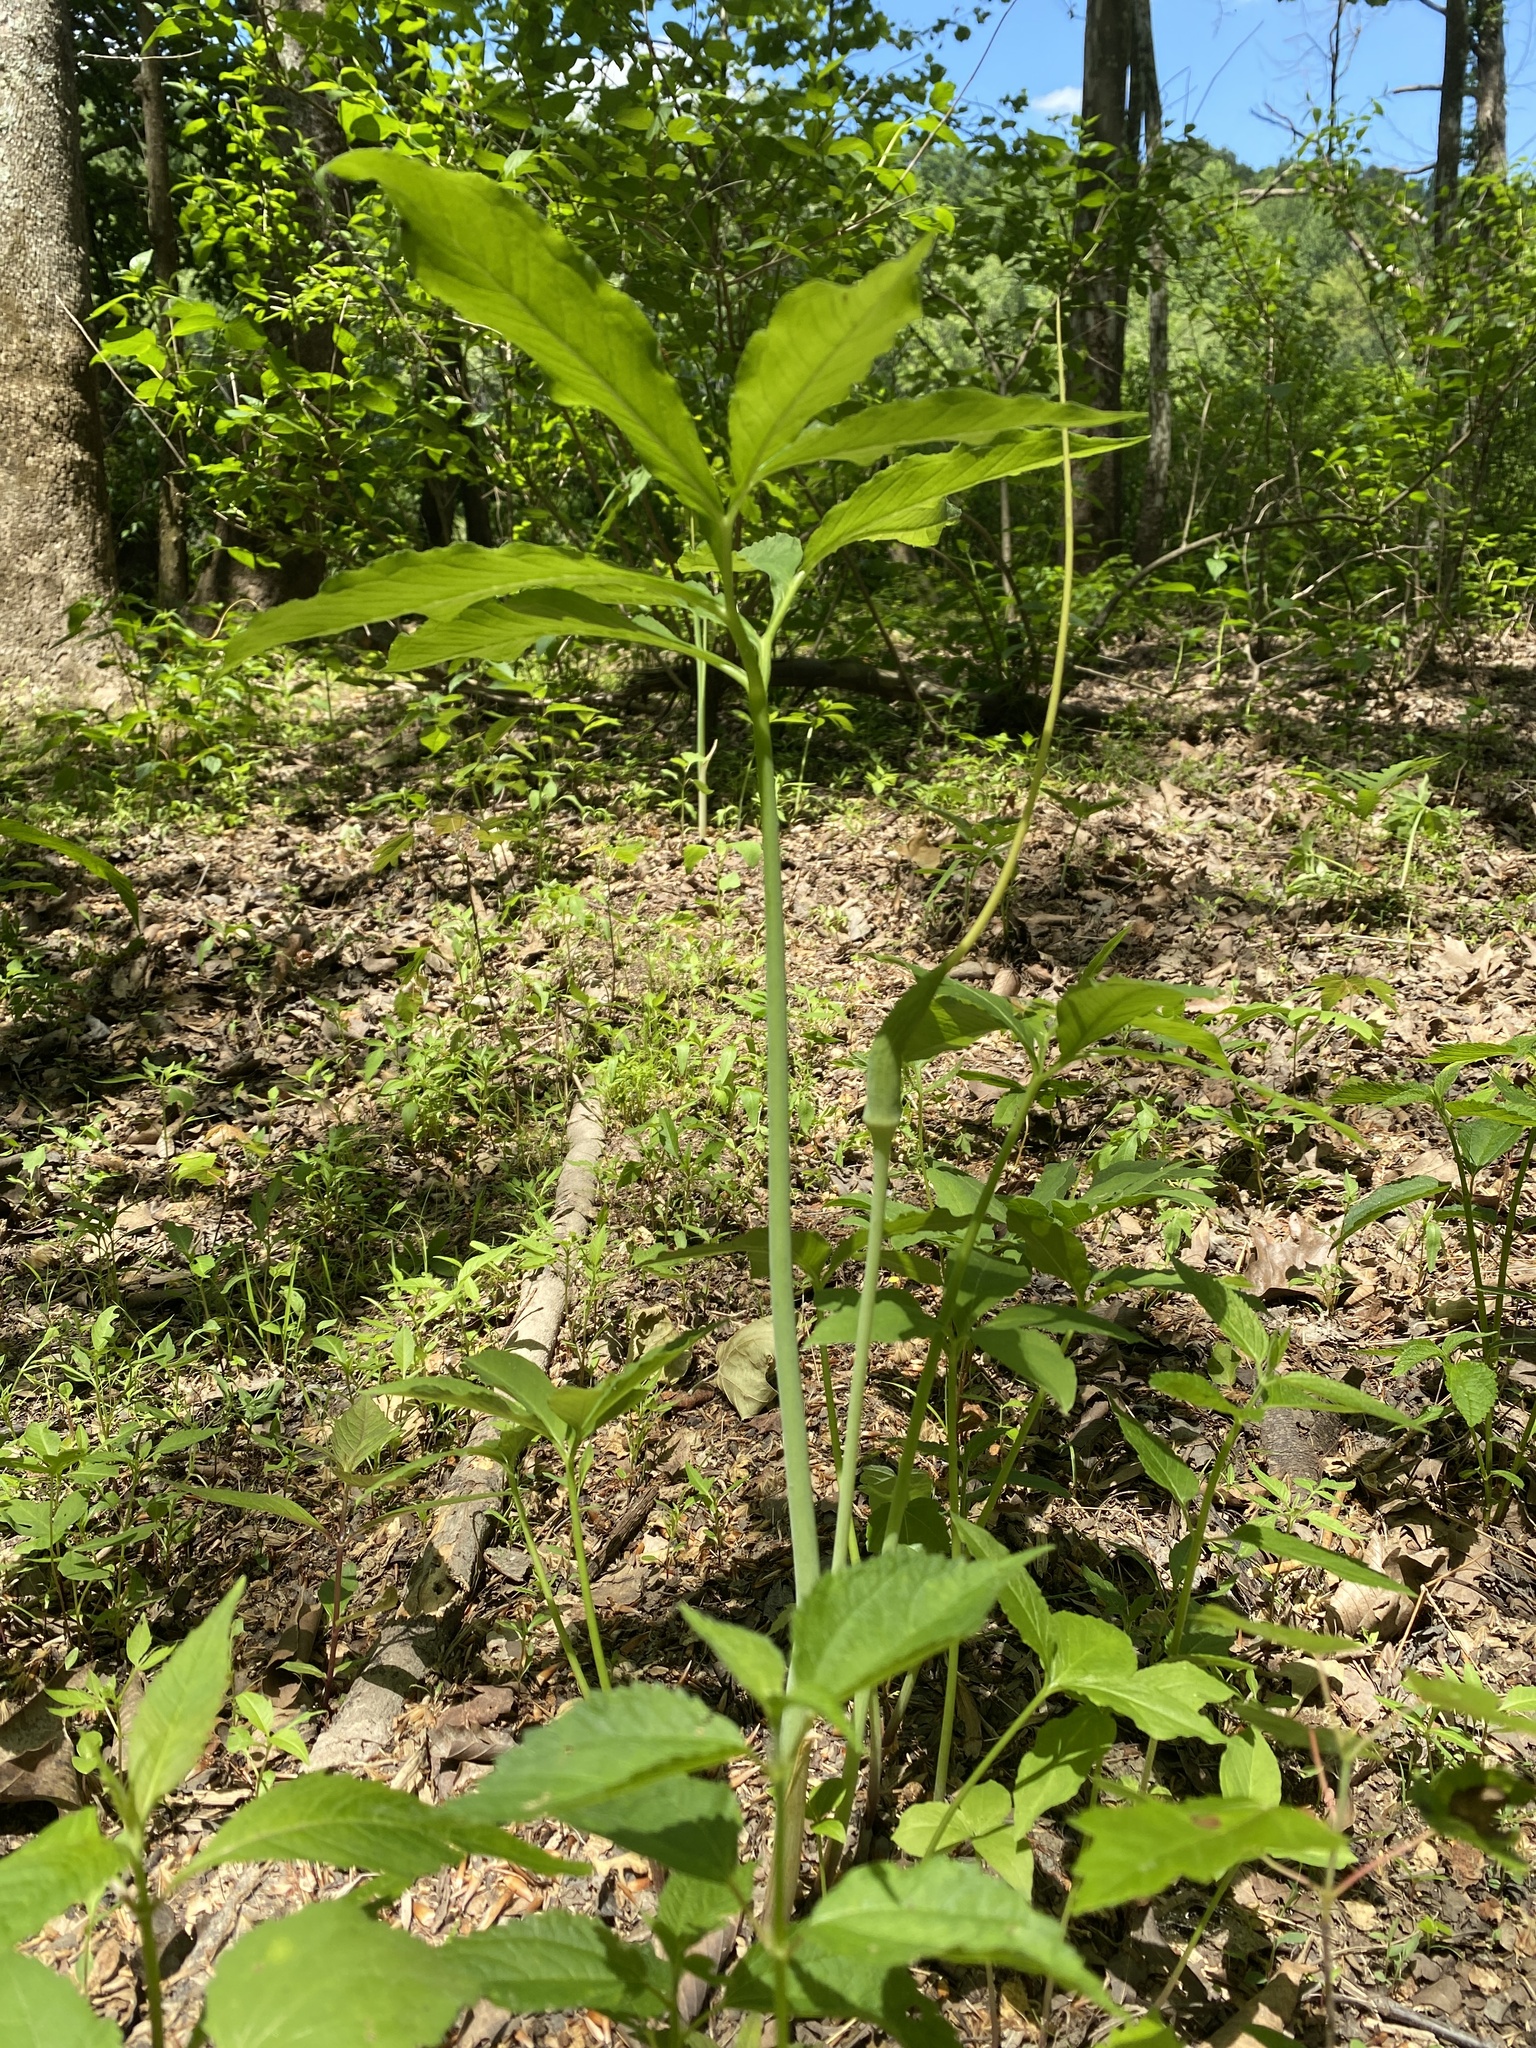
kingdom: Plantae
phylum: Tracheophyta
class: Liliopsida
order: Alismatales
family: Araceae
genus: Arisaema
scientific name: Arisaema dracontium
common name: Dragon-arum
